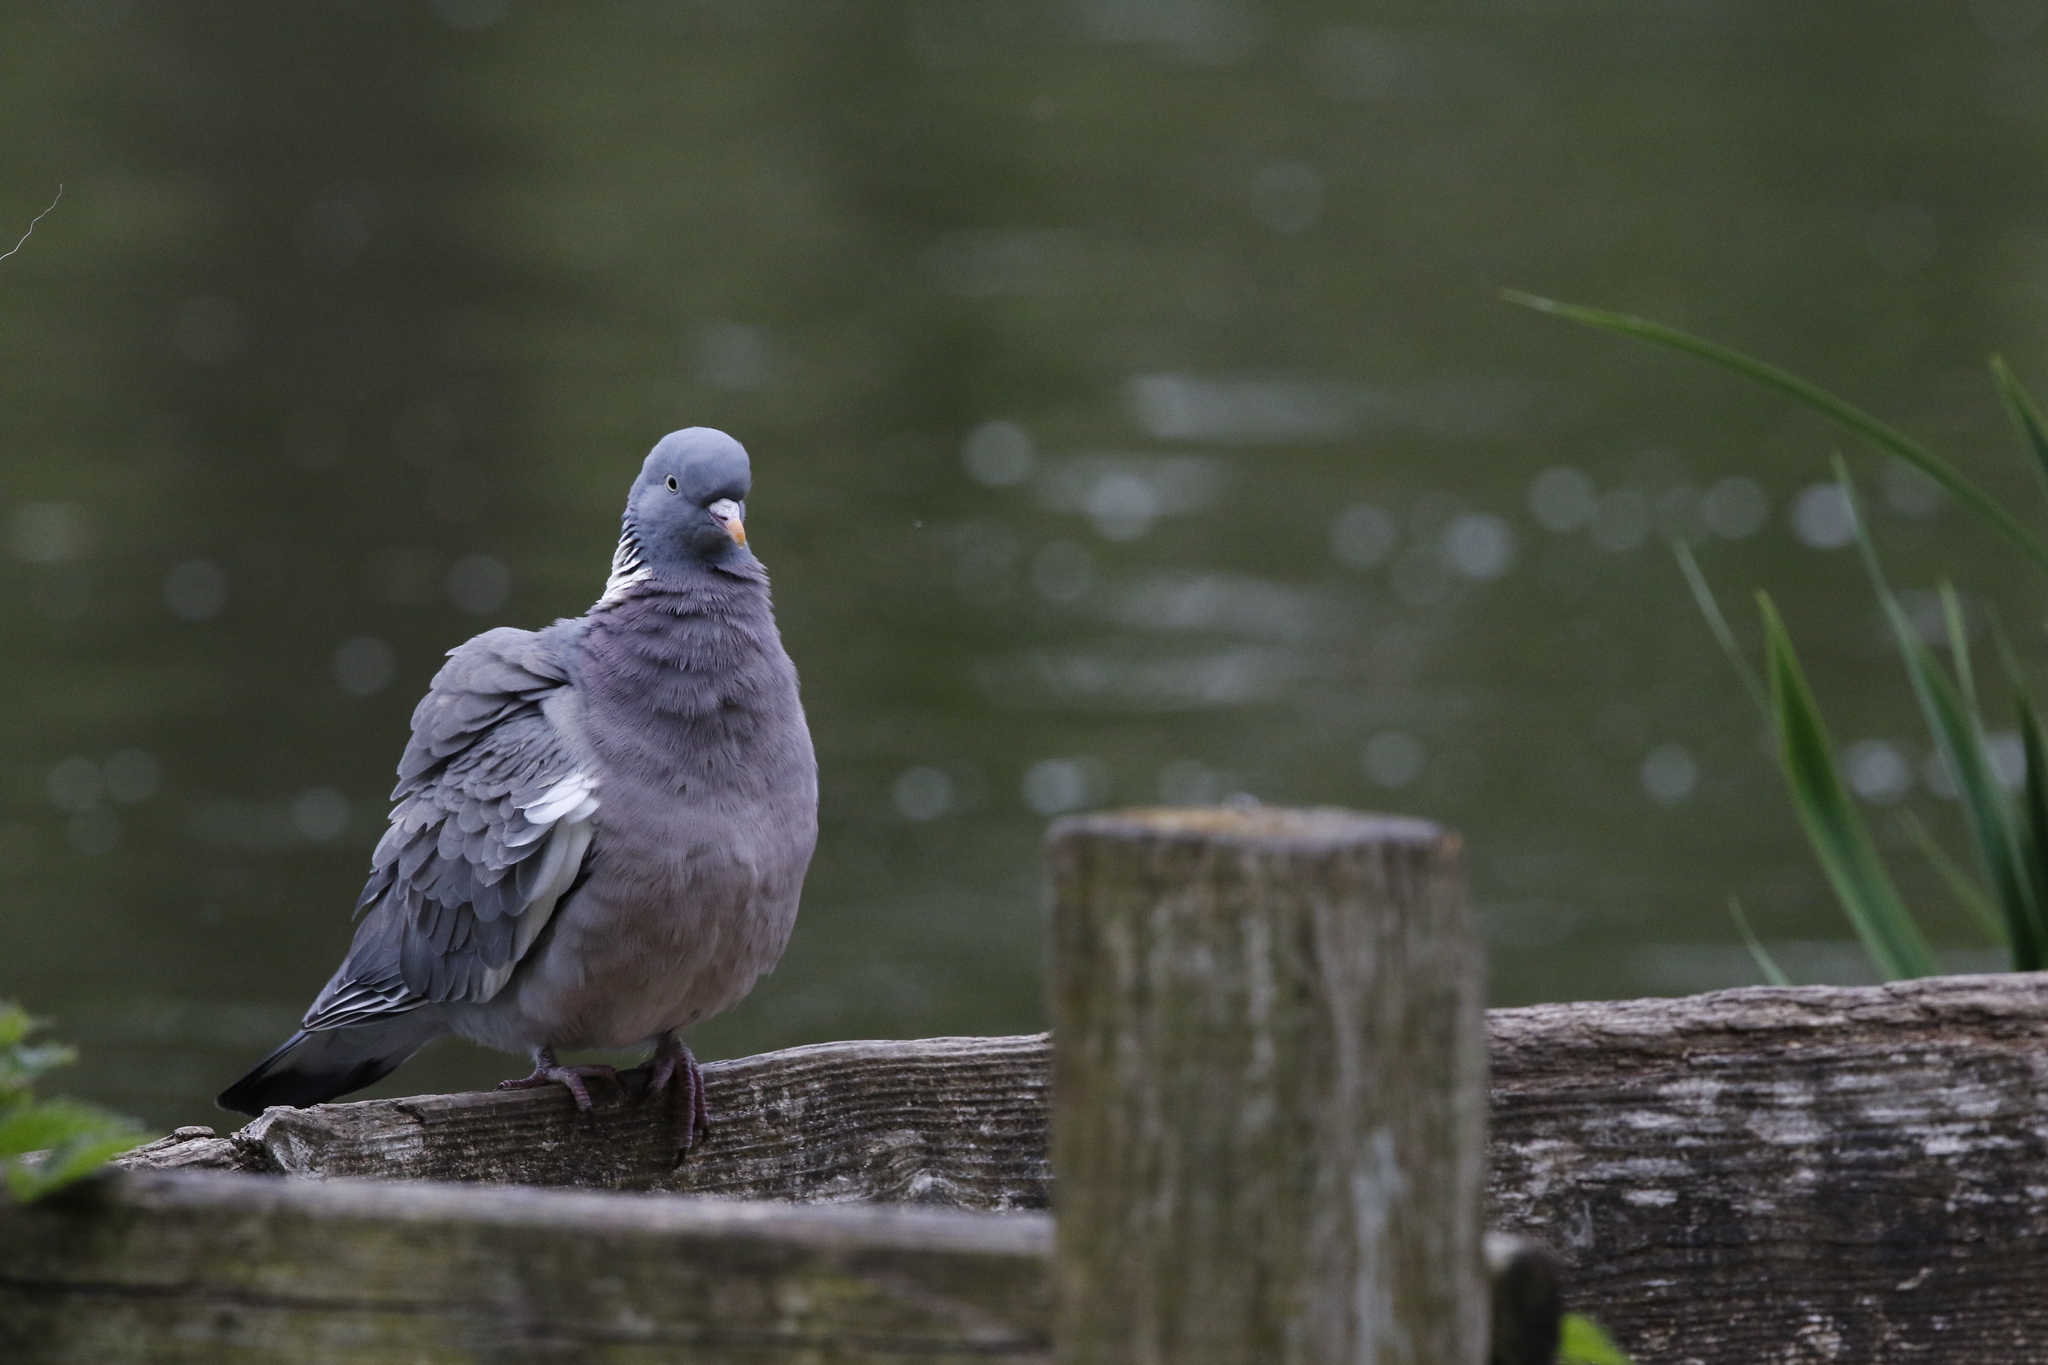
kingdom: Animalia
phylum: Chordata
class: Aves
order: Columbiformes
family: Columbidae
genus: Columba
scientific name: Columba palumbus
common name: Common wood pigeon
